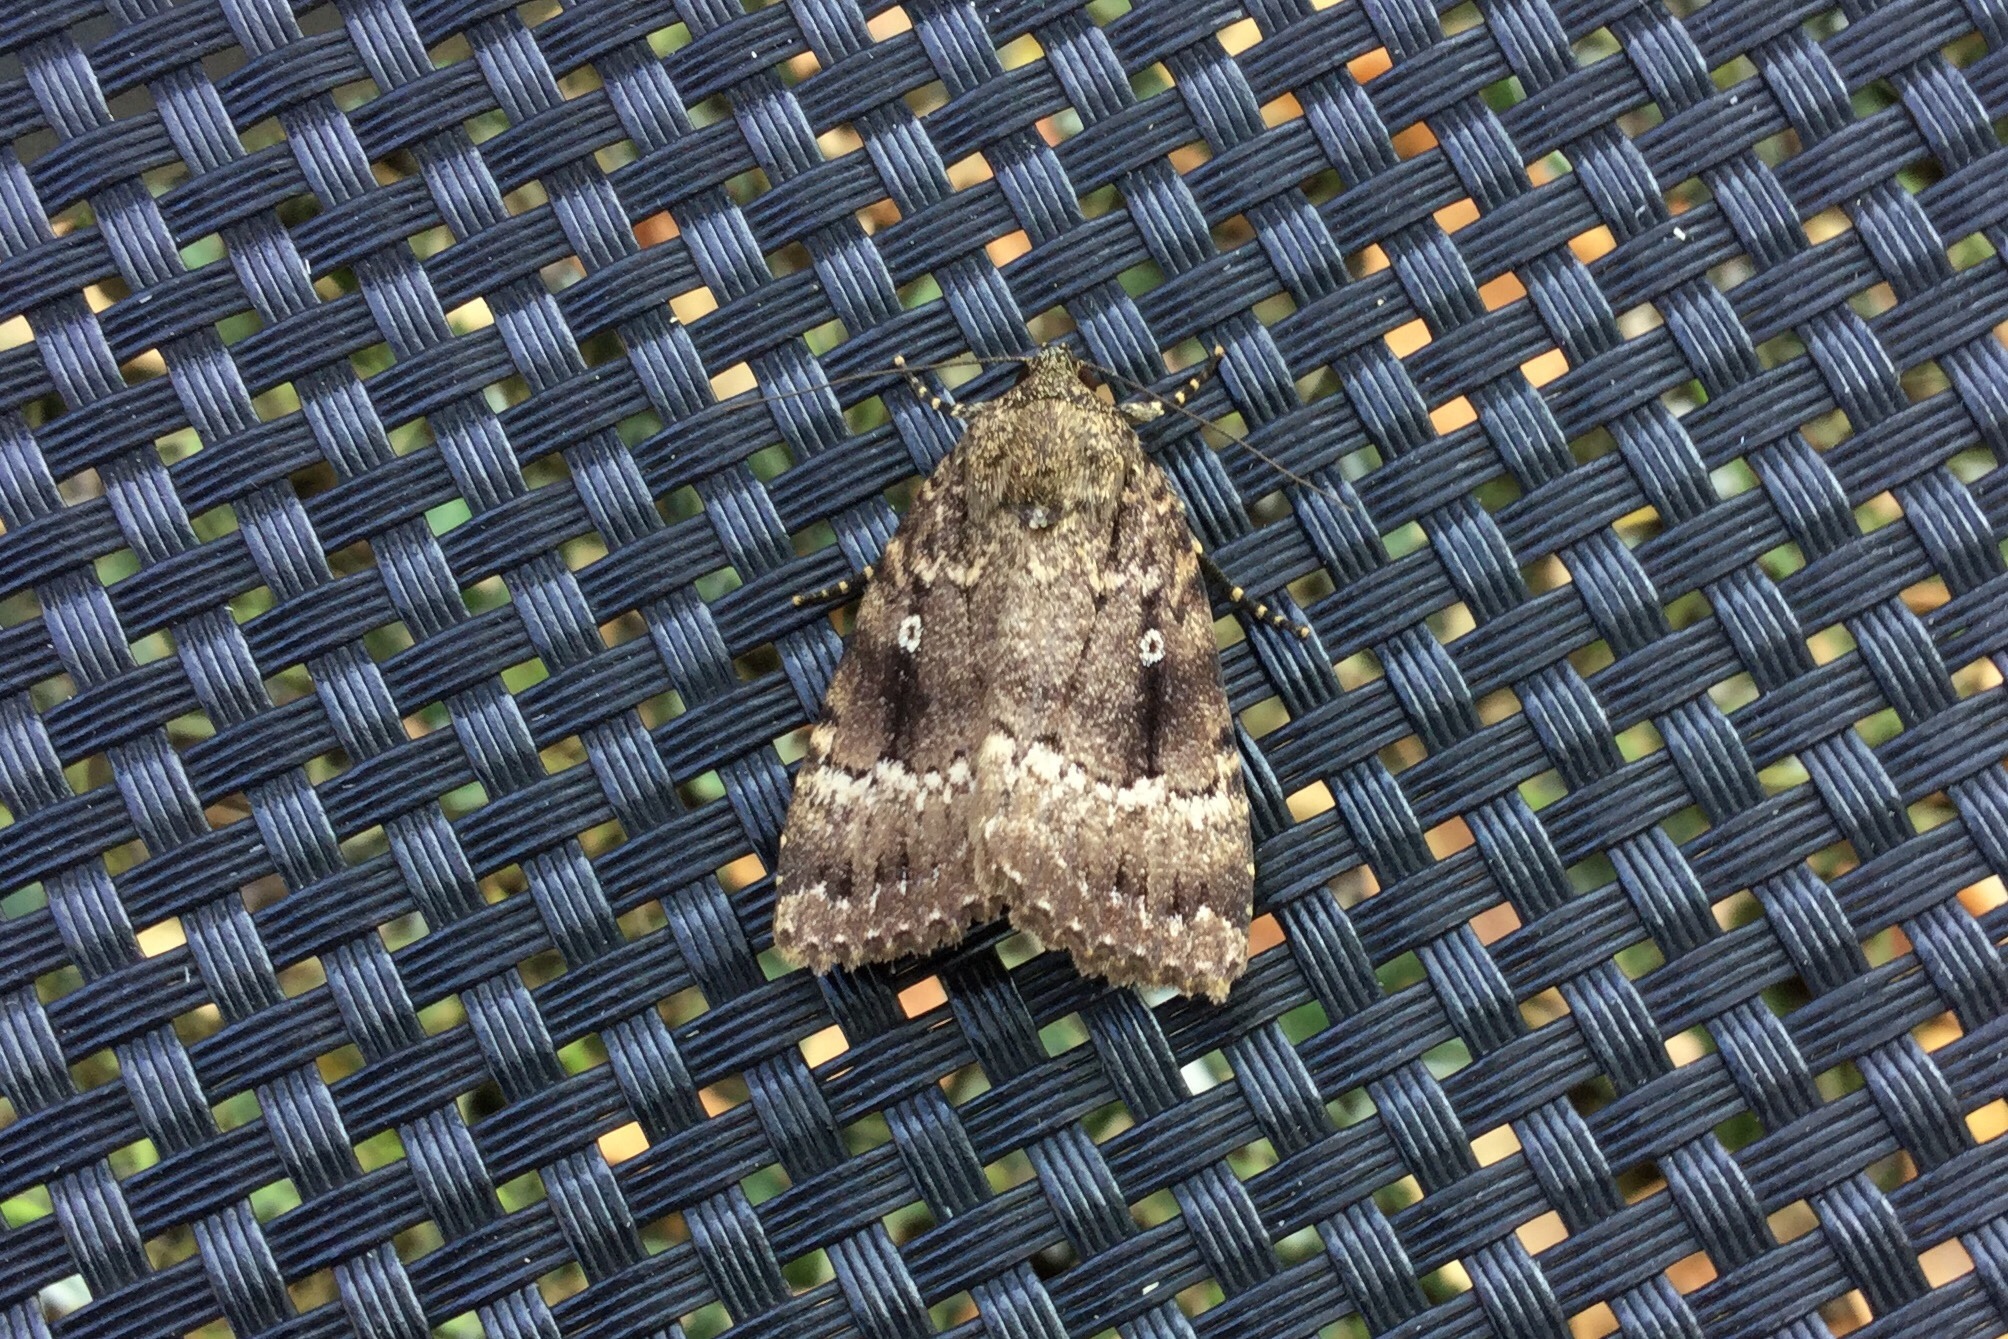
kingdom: Animalia
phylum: Arthropoda
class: Insecta
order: Lepidoptera
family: Noctuidae
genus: Amphipyra
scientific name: Amphipyra pyramidea
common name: Copper underwing
